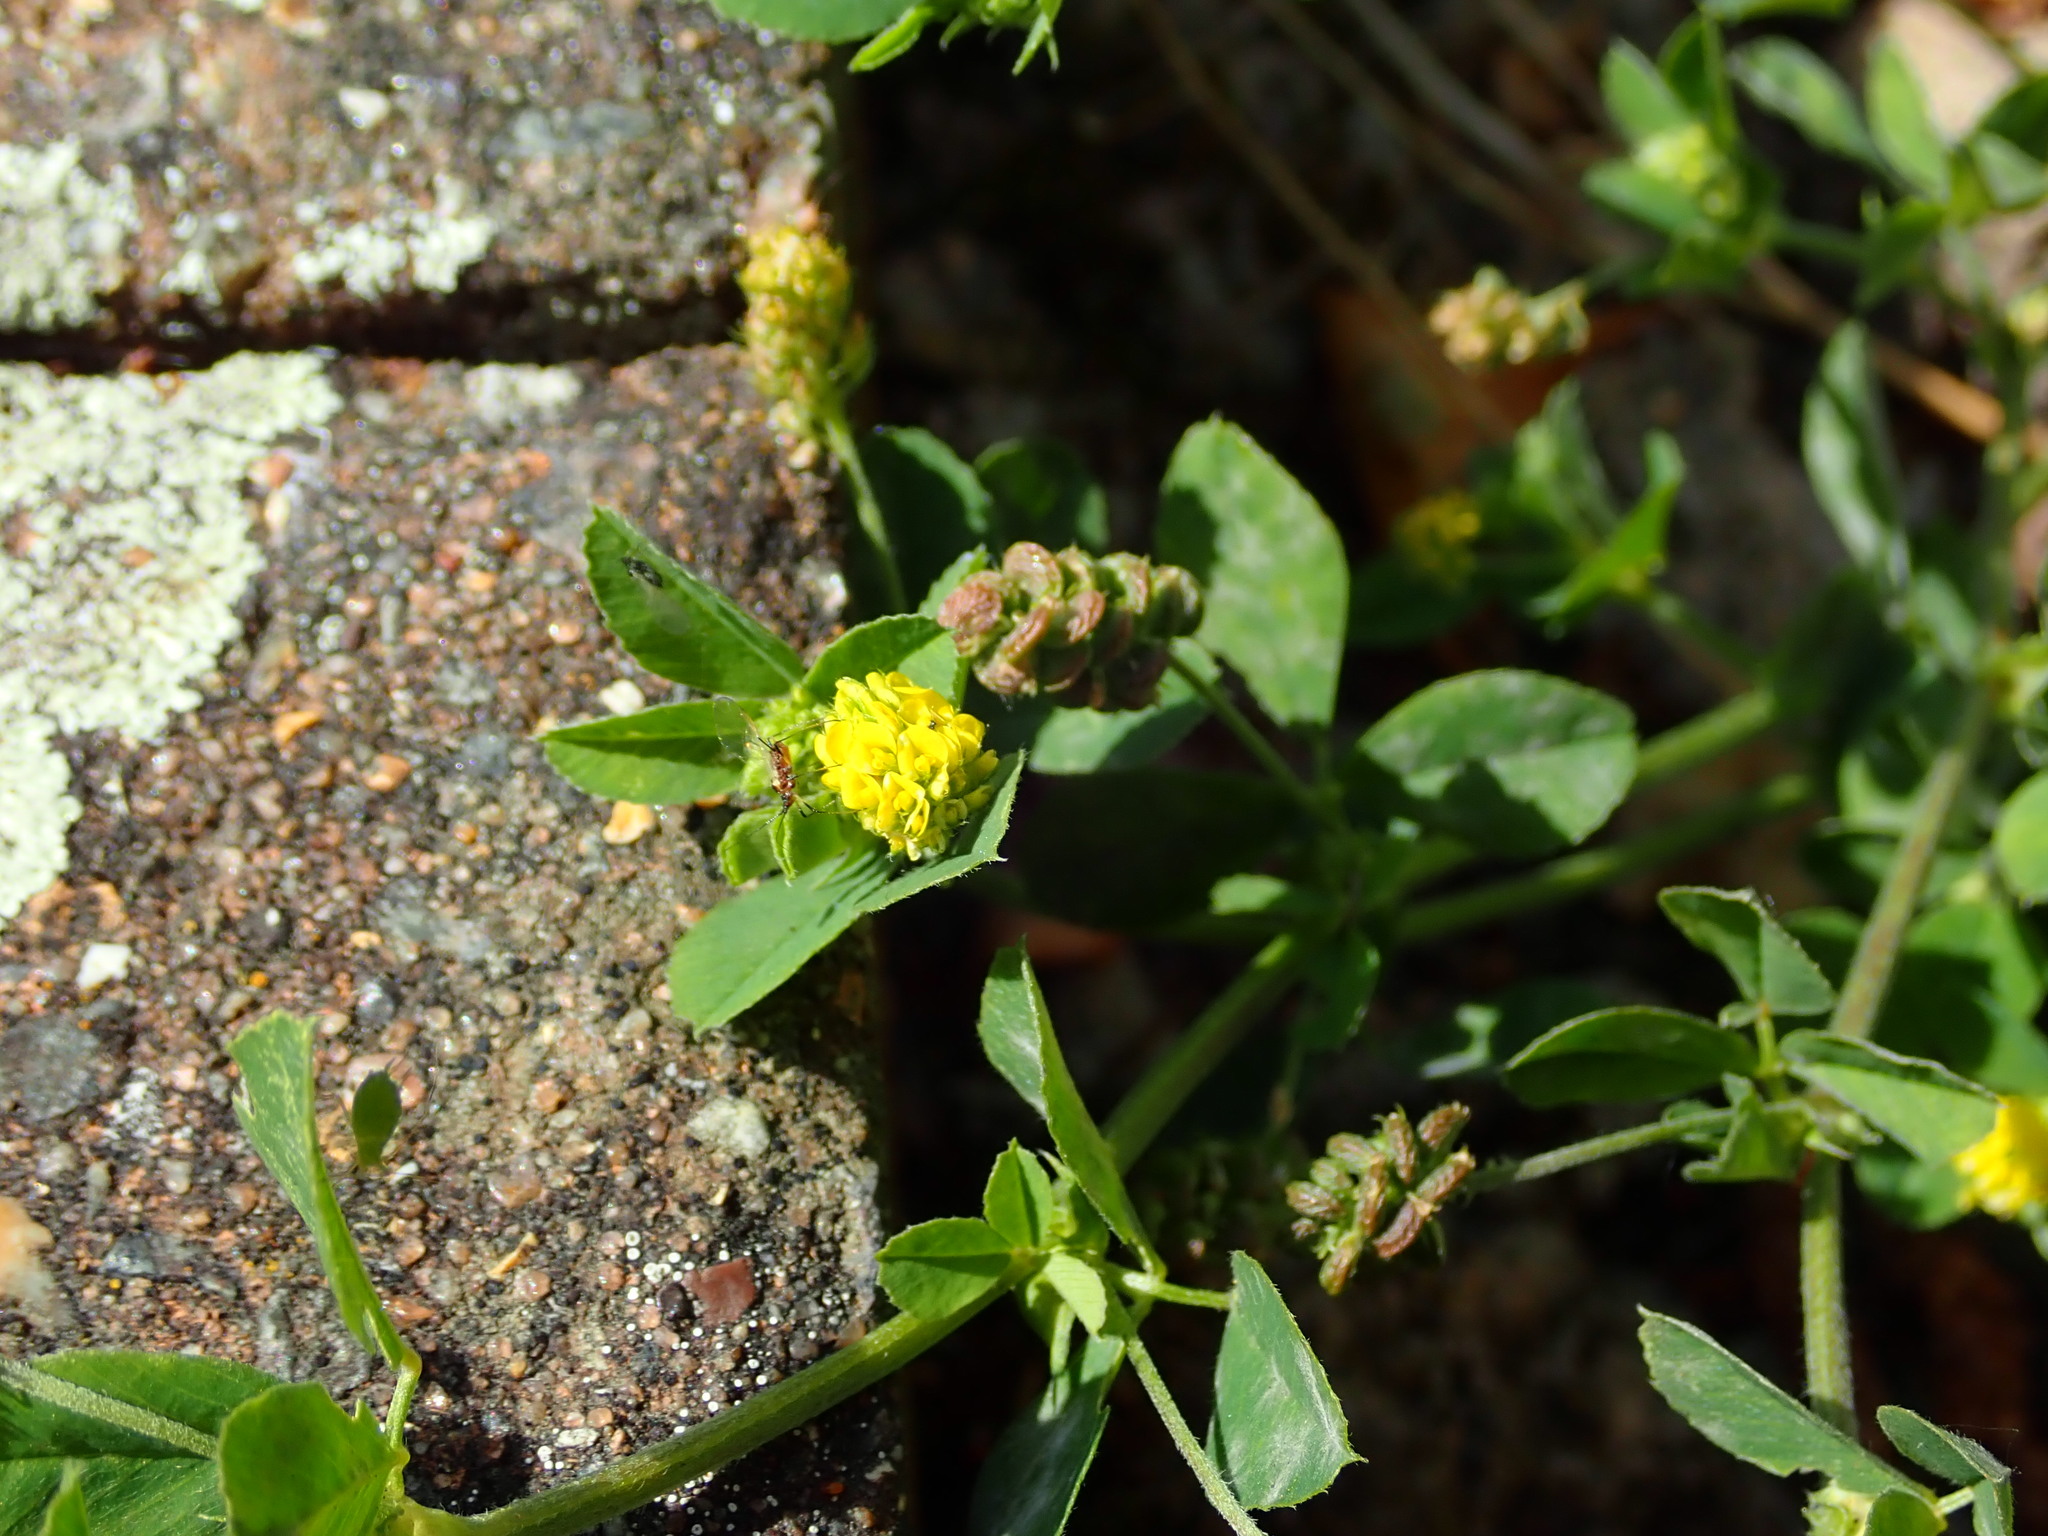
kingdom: Plantae
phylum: Tracheophyta
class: Magnoliopsida
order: Fabales
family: Fabaceae
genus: Medicago
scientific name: Medicago lupulina
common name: Black medick
